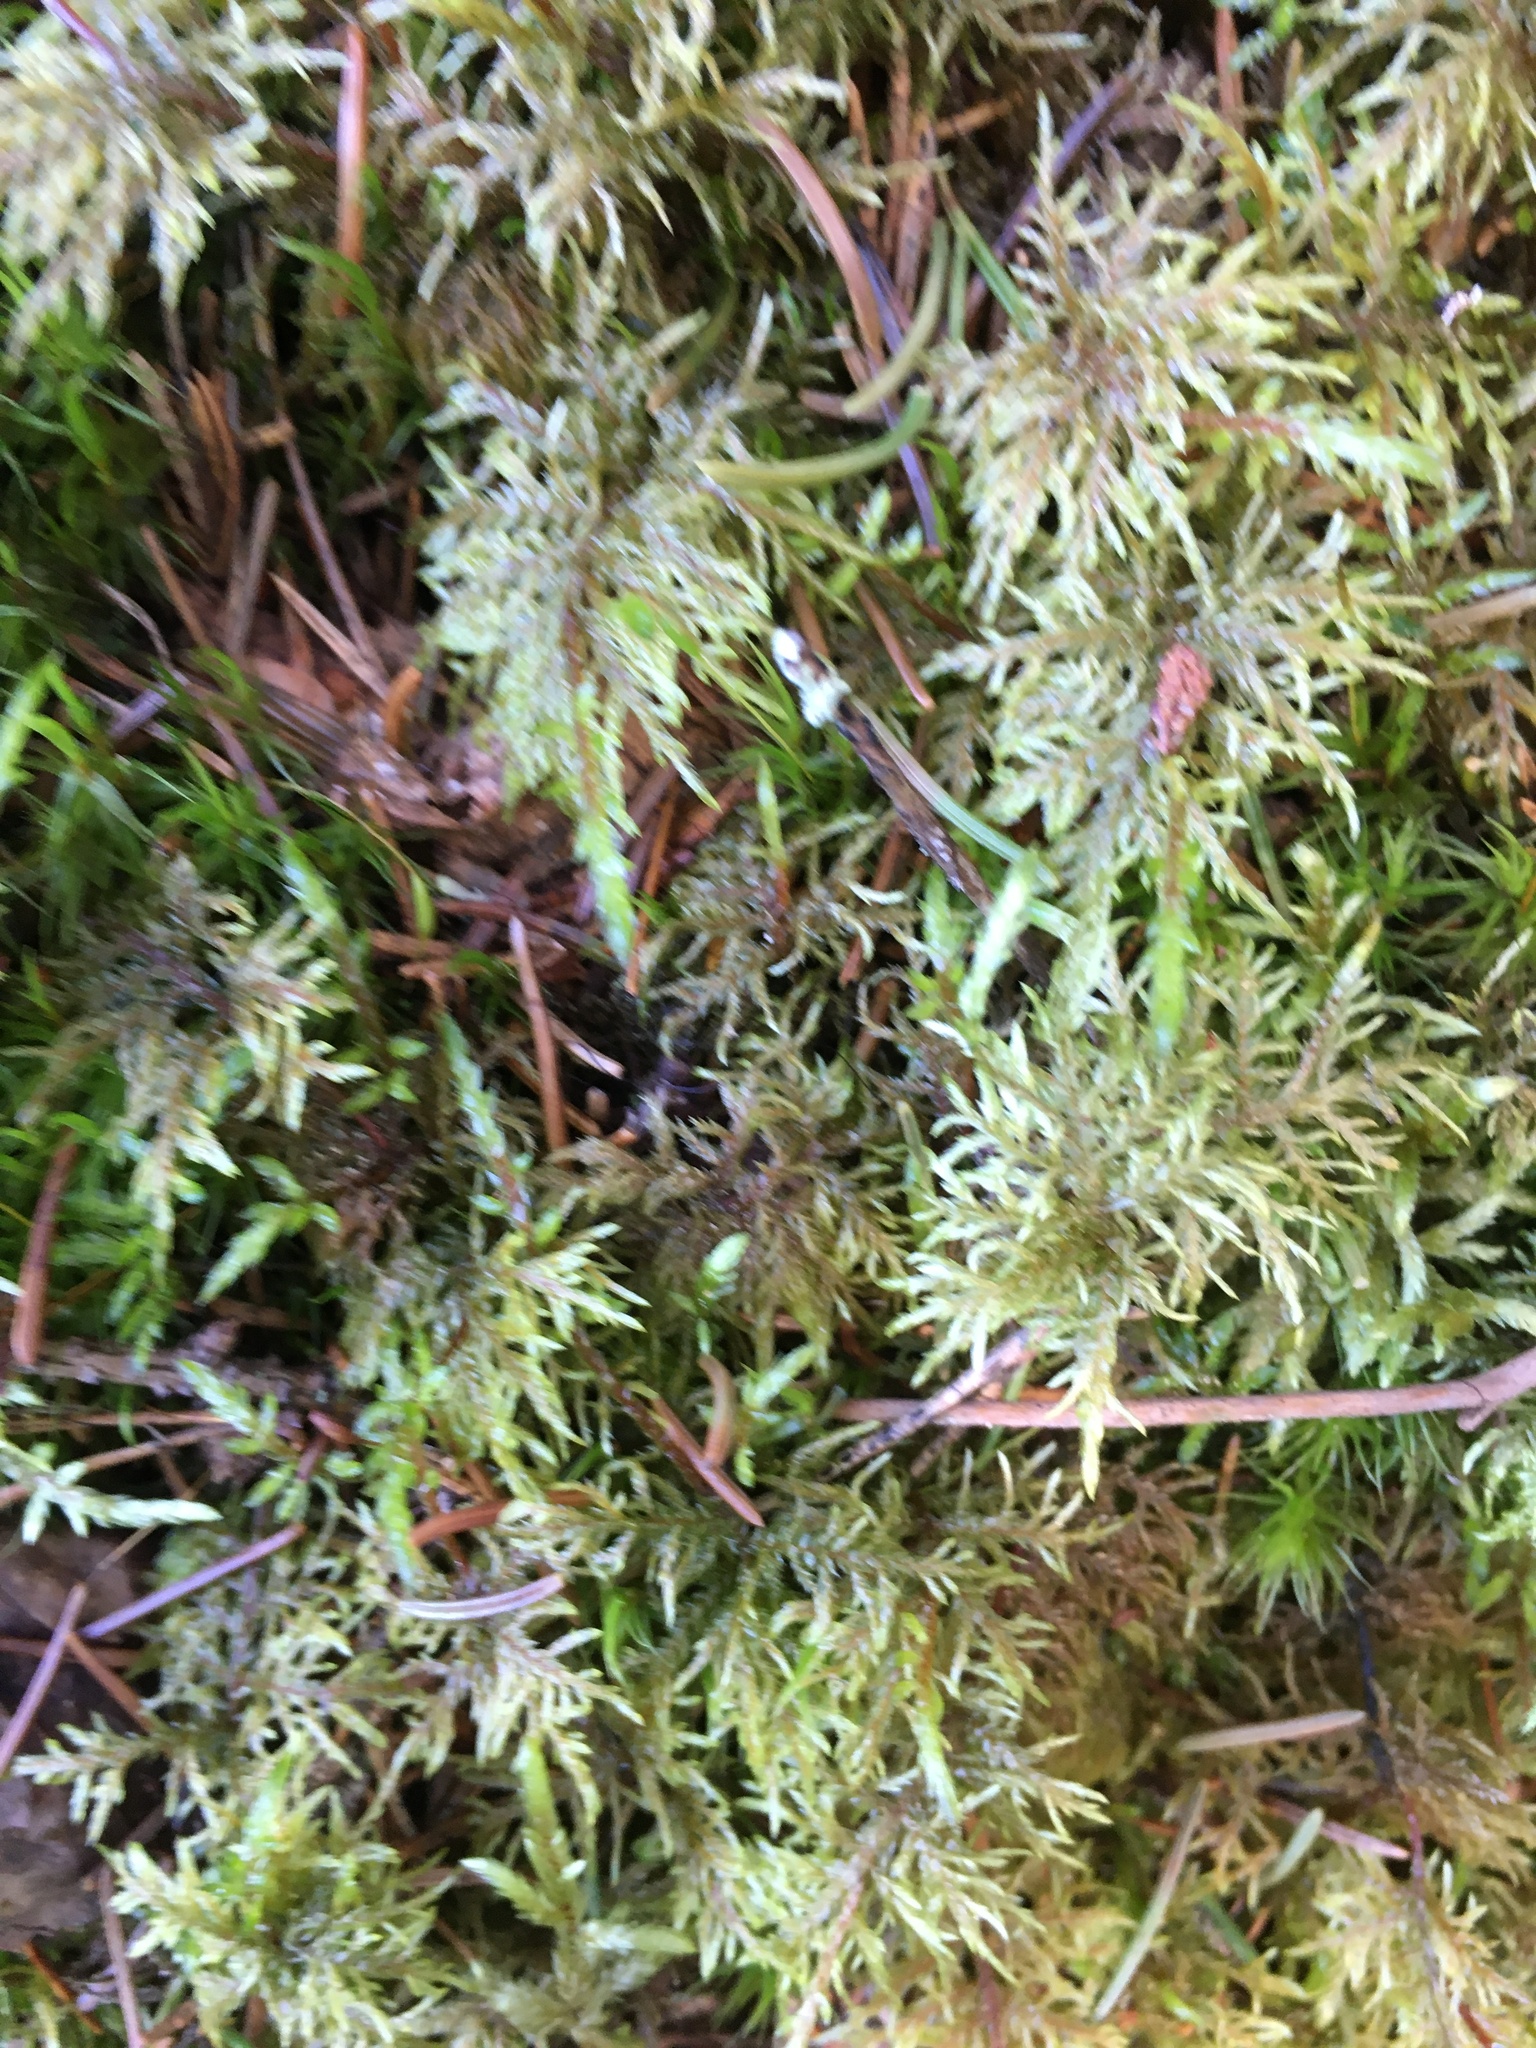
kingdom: Plantae
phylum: Bryophyta
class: Bryopsida
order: Hypnales
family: Hylocomiaceae
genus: Hylocomium
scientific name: Hylocomium splendens
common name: Stairstep moss
